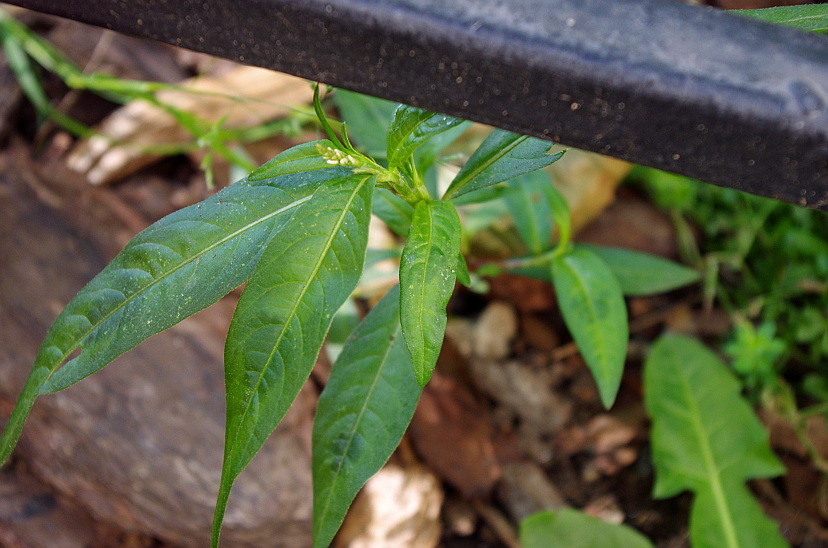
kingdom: Plantae
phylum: Tracheophyta
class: Magnoliopsida
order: Caryophyllales
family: Polygonaceae
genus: Persicaria
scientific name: Persicaria maculosa
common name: Redshank
